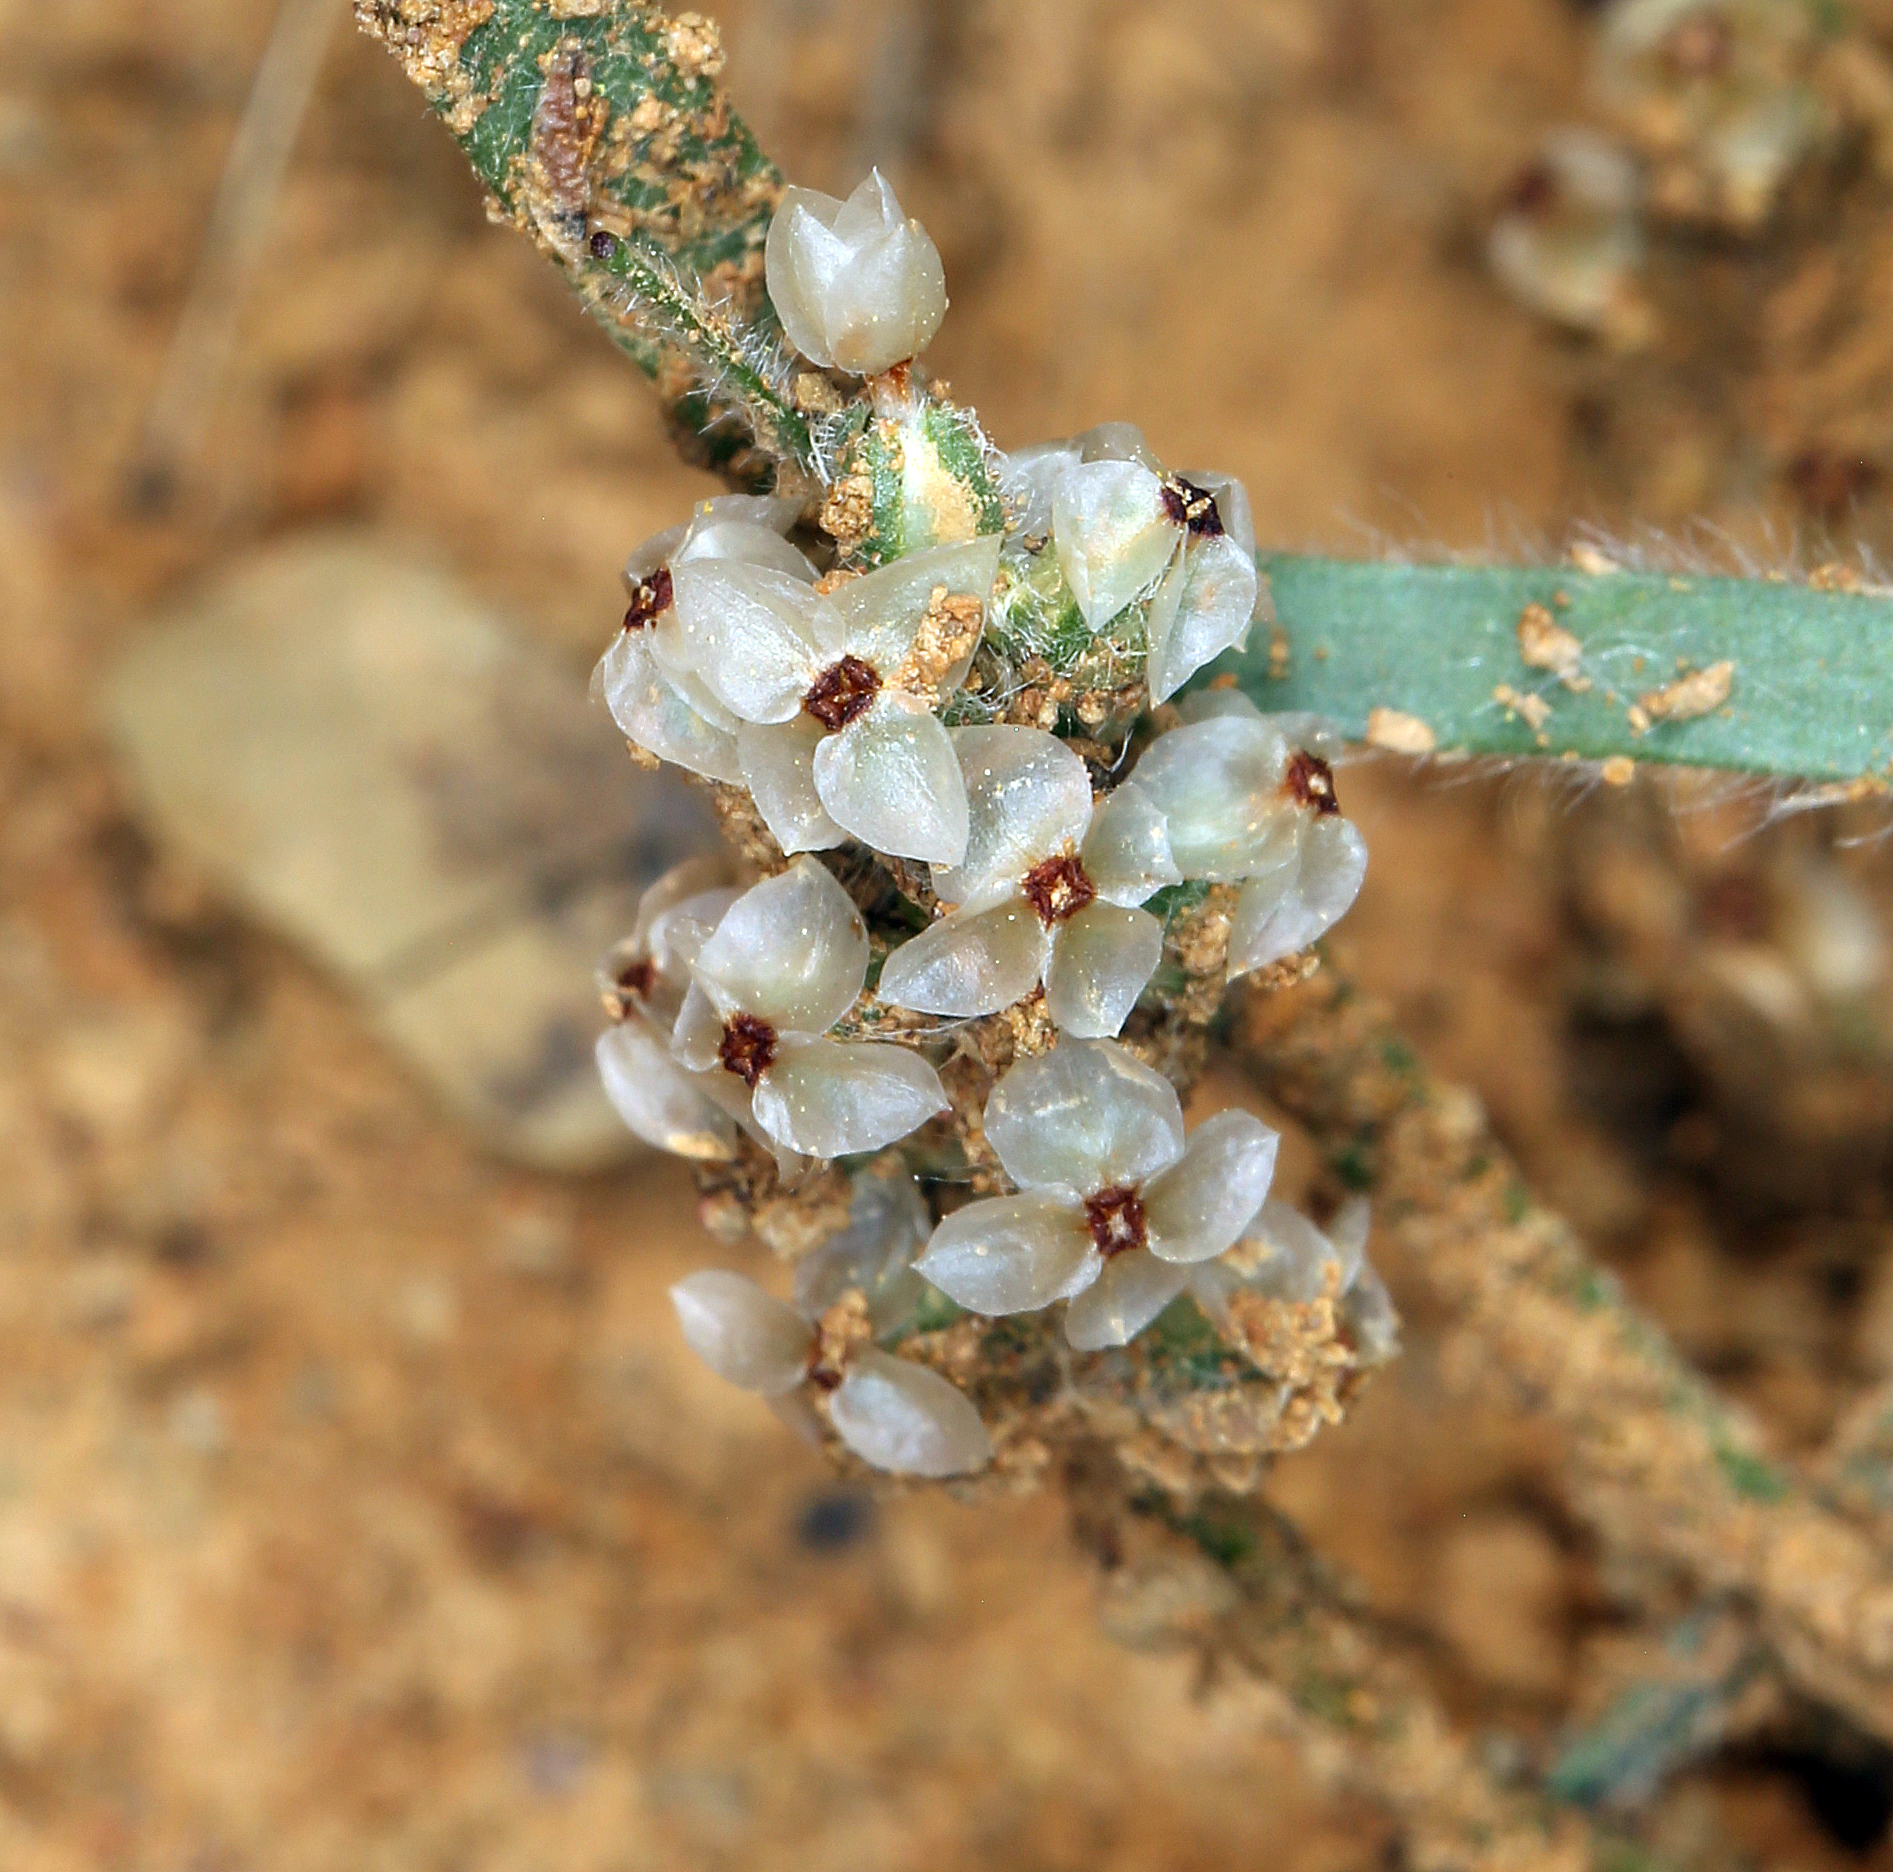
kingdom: Plantae
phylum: Tracheophyta
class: Magnoliopsida
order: Lamiales
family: Plantaginaceae
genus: Plantago
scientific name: Plantago erecta
